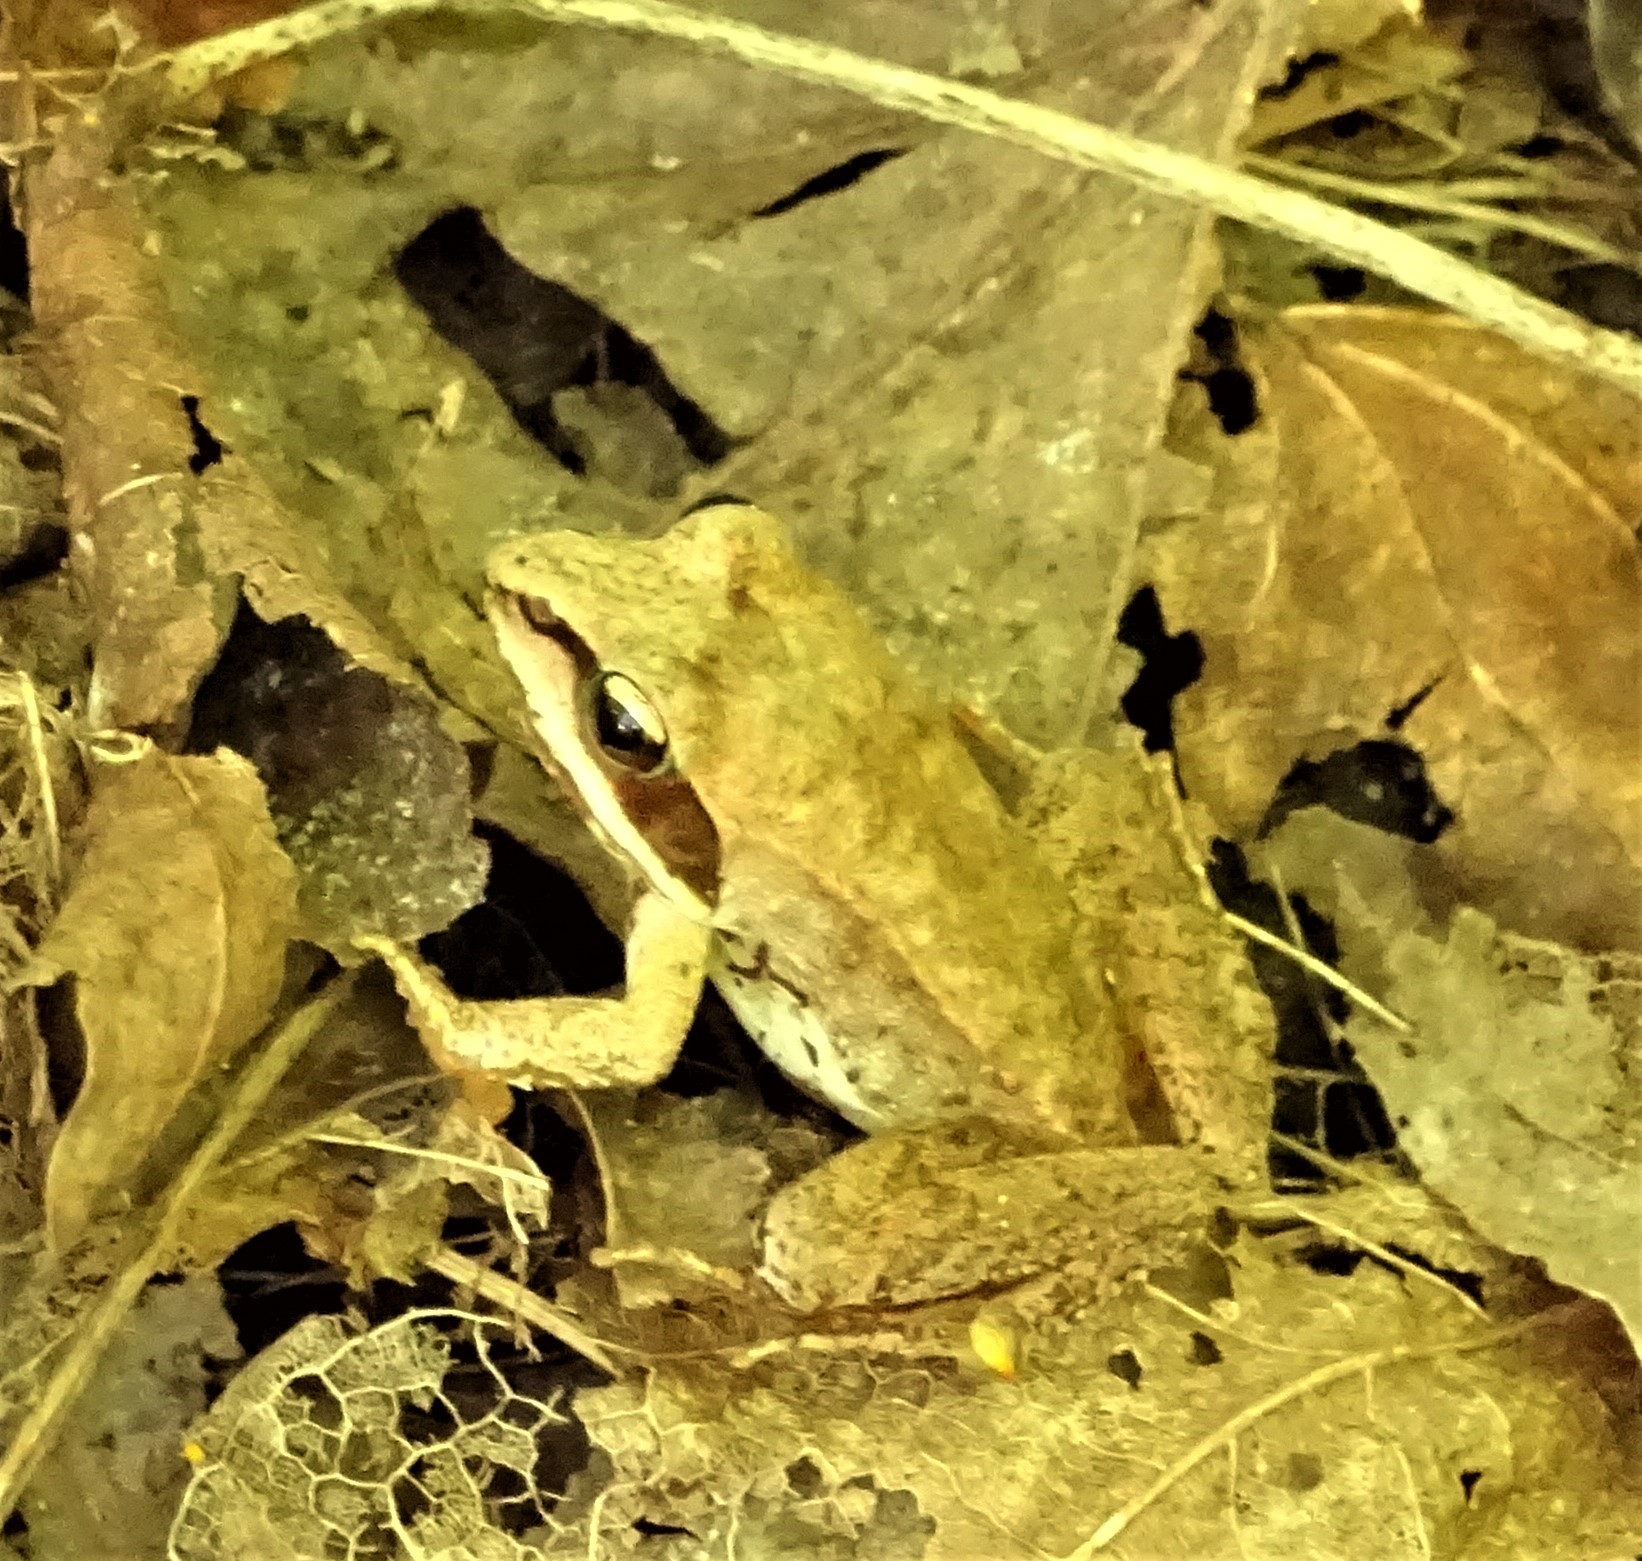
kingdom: Animalia
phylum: Chordata
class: Amphibia
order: Anura
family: Ranidae
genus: Lithobates
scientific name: Lithobates sylvaticus
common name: Wood frog
